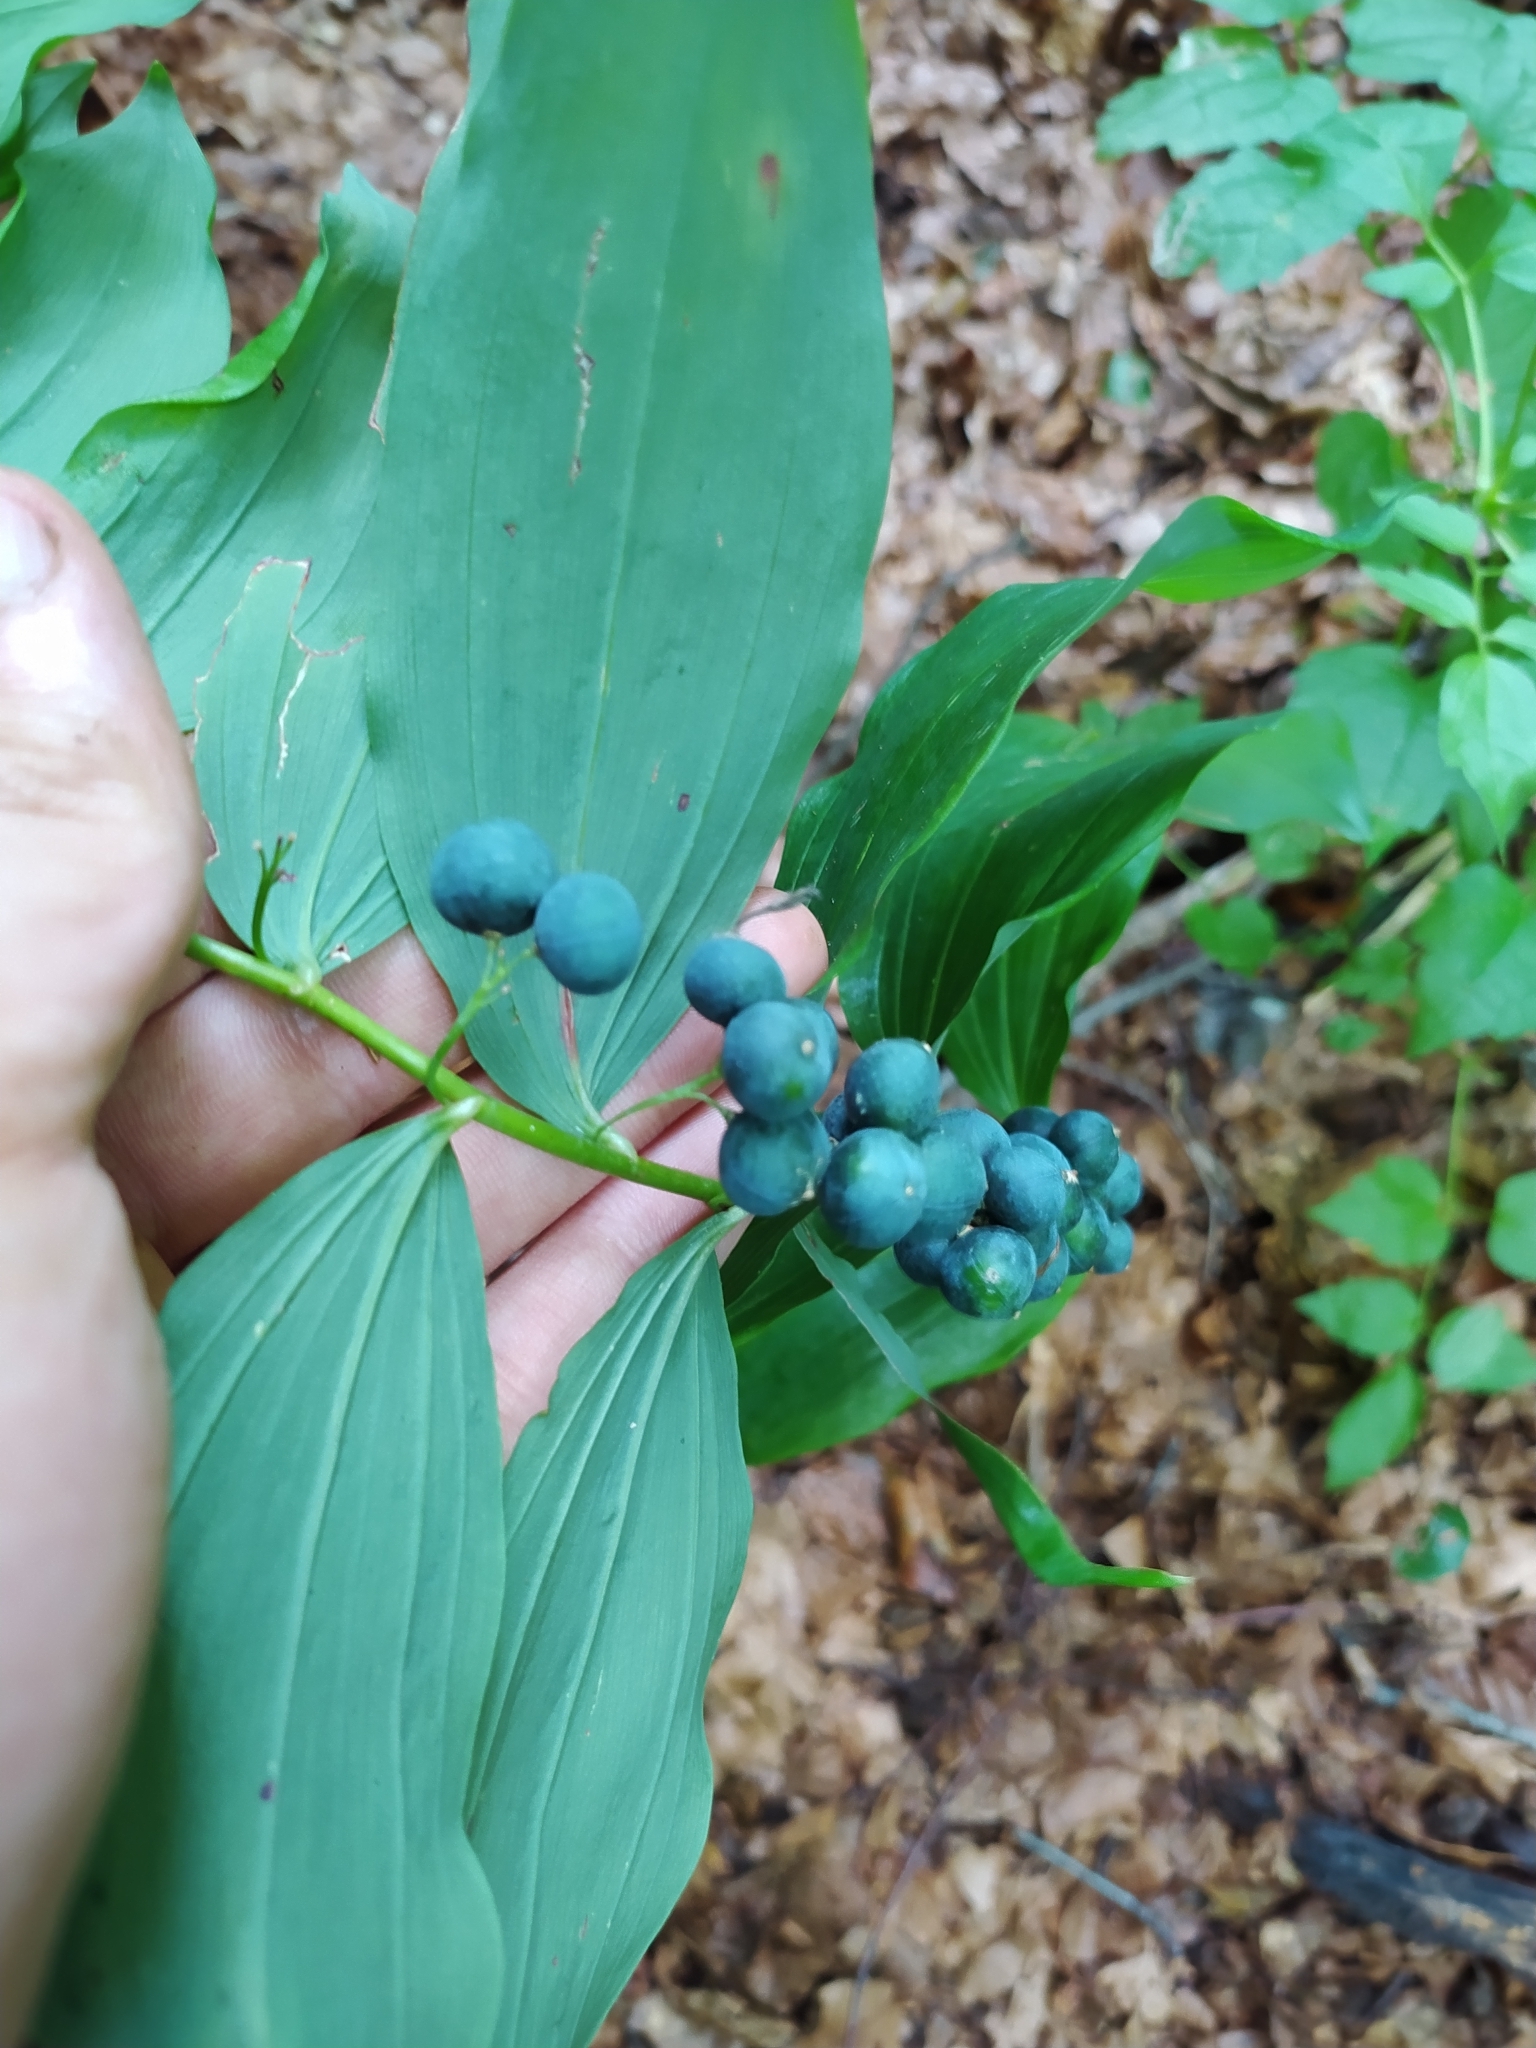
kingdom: Plantae
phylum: Tracheophyta
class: Liliopsida
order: Asparagales
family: Asparagaceae
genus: Polygonatum
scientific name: Polygonatum multiflorum
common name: Solomon's-seal
